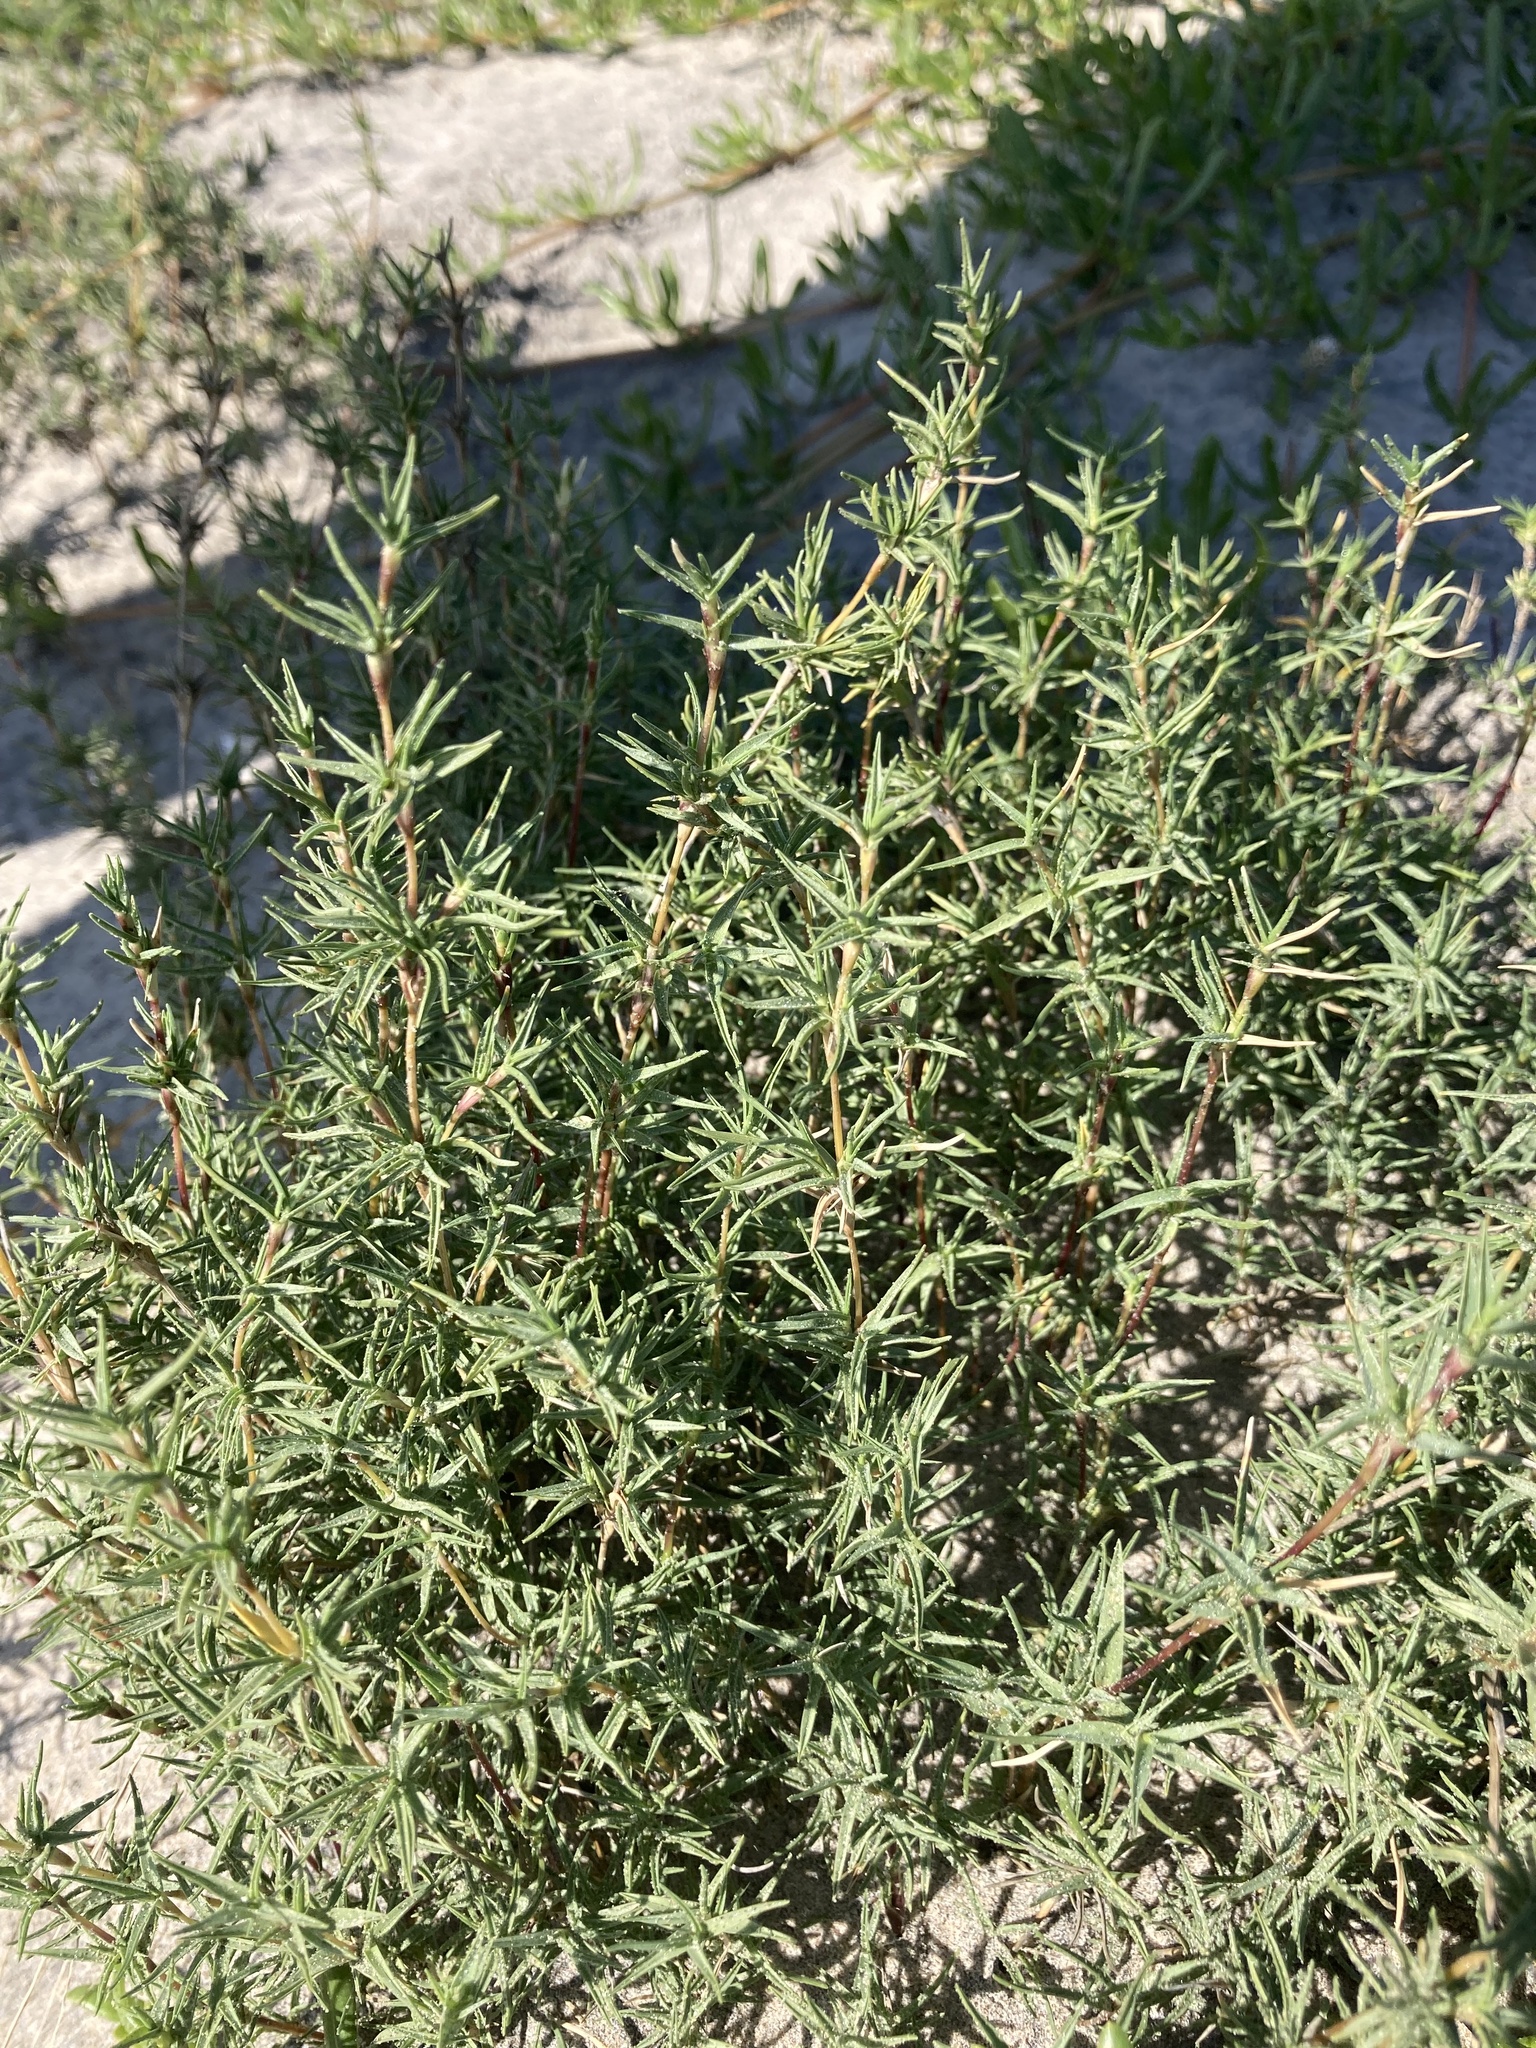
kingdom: Plantae
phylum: Tracheophyta
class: Liliopsida
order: Poales
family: Poaceae
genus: Distichlis
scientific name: Distichlis littoralis
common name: Shore grass
